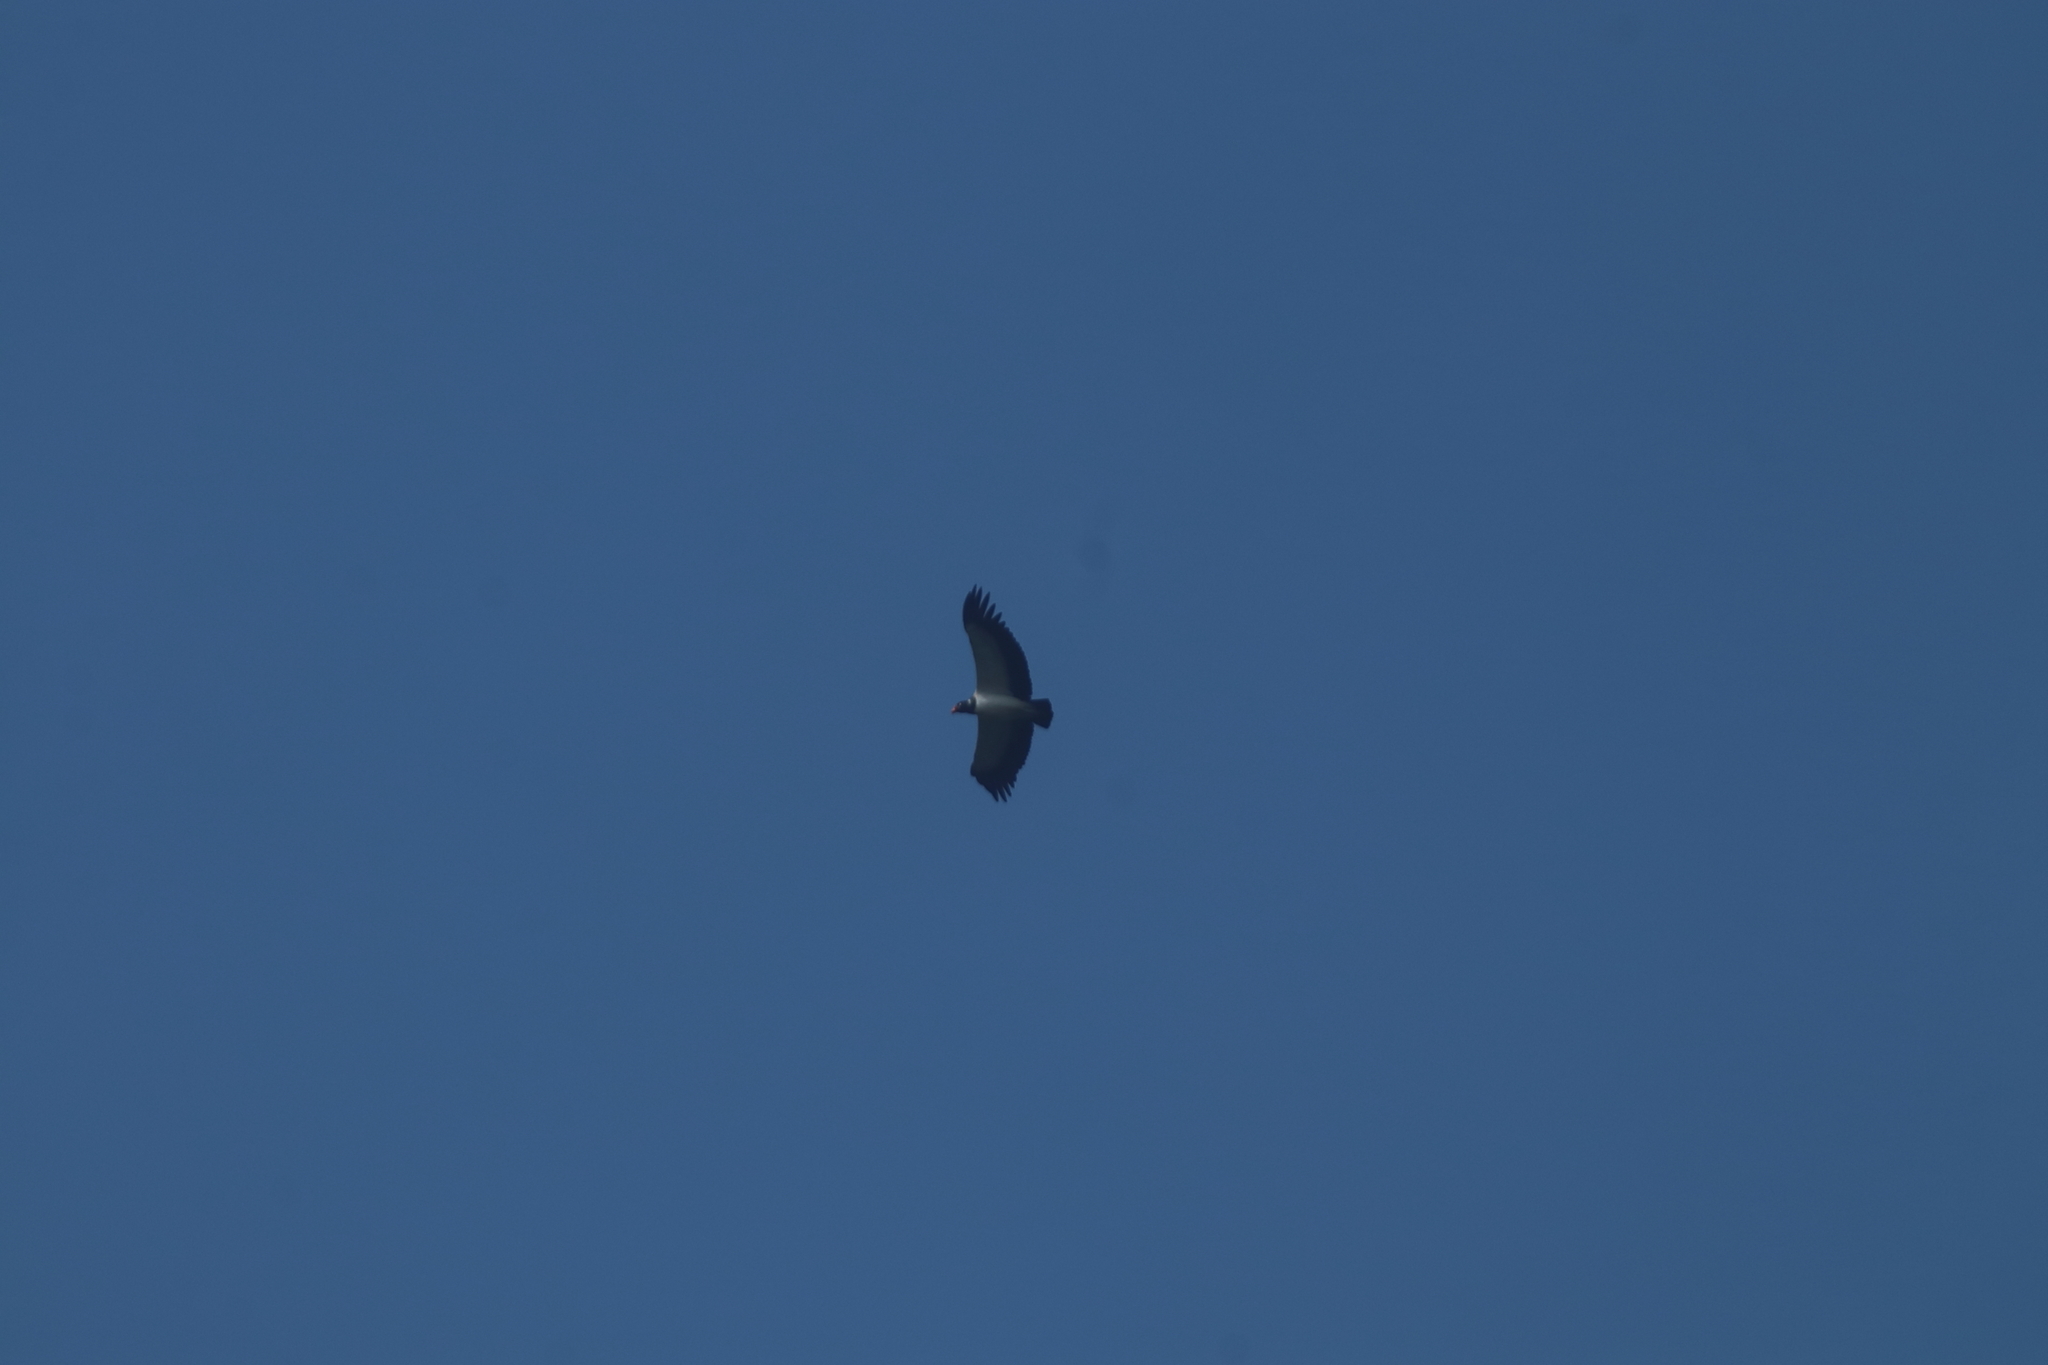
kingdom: Animalia
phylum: Chordata
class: Aves
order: Accipitriformes
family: Cathartidae
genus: Sarcoramphus
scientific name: Sarcoramphus papa
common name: King vulture
